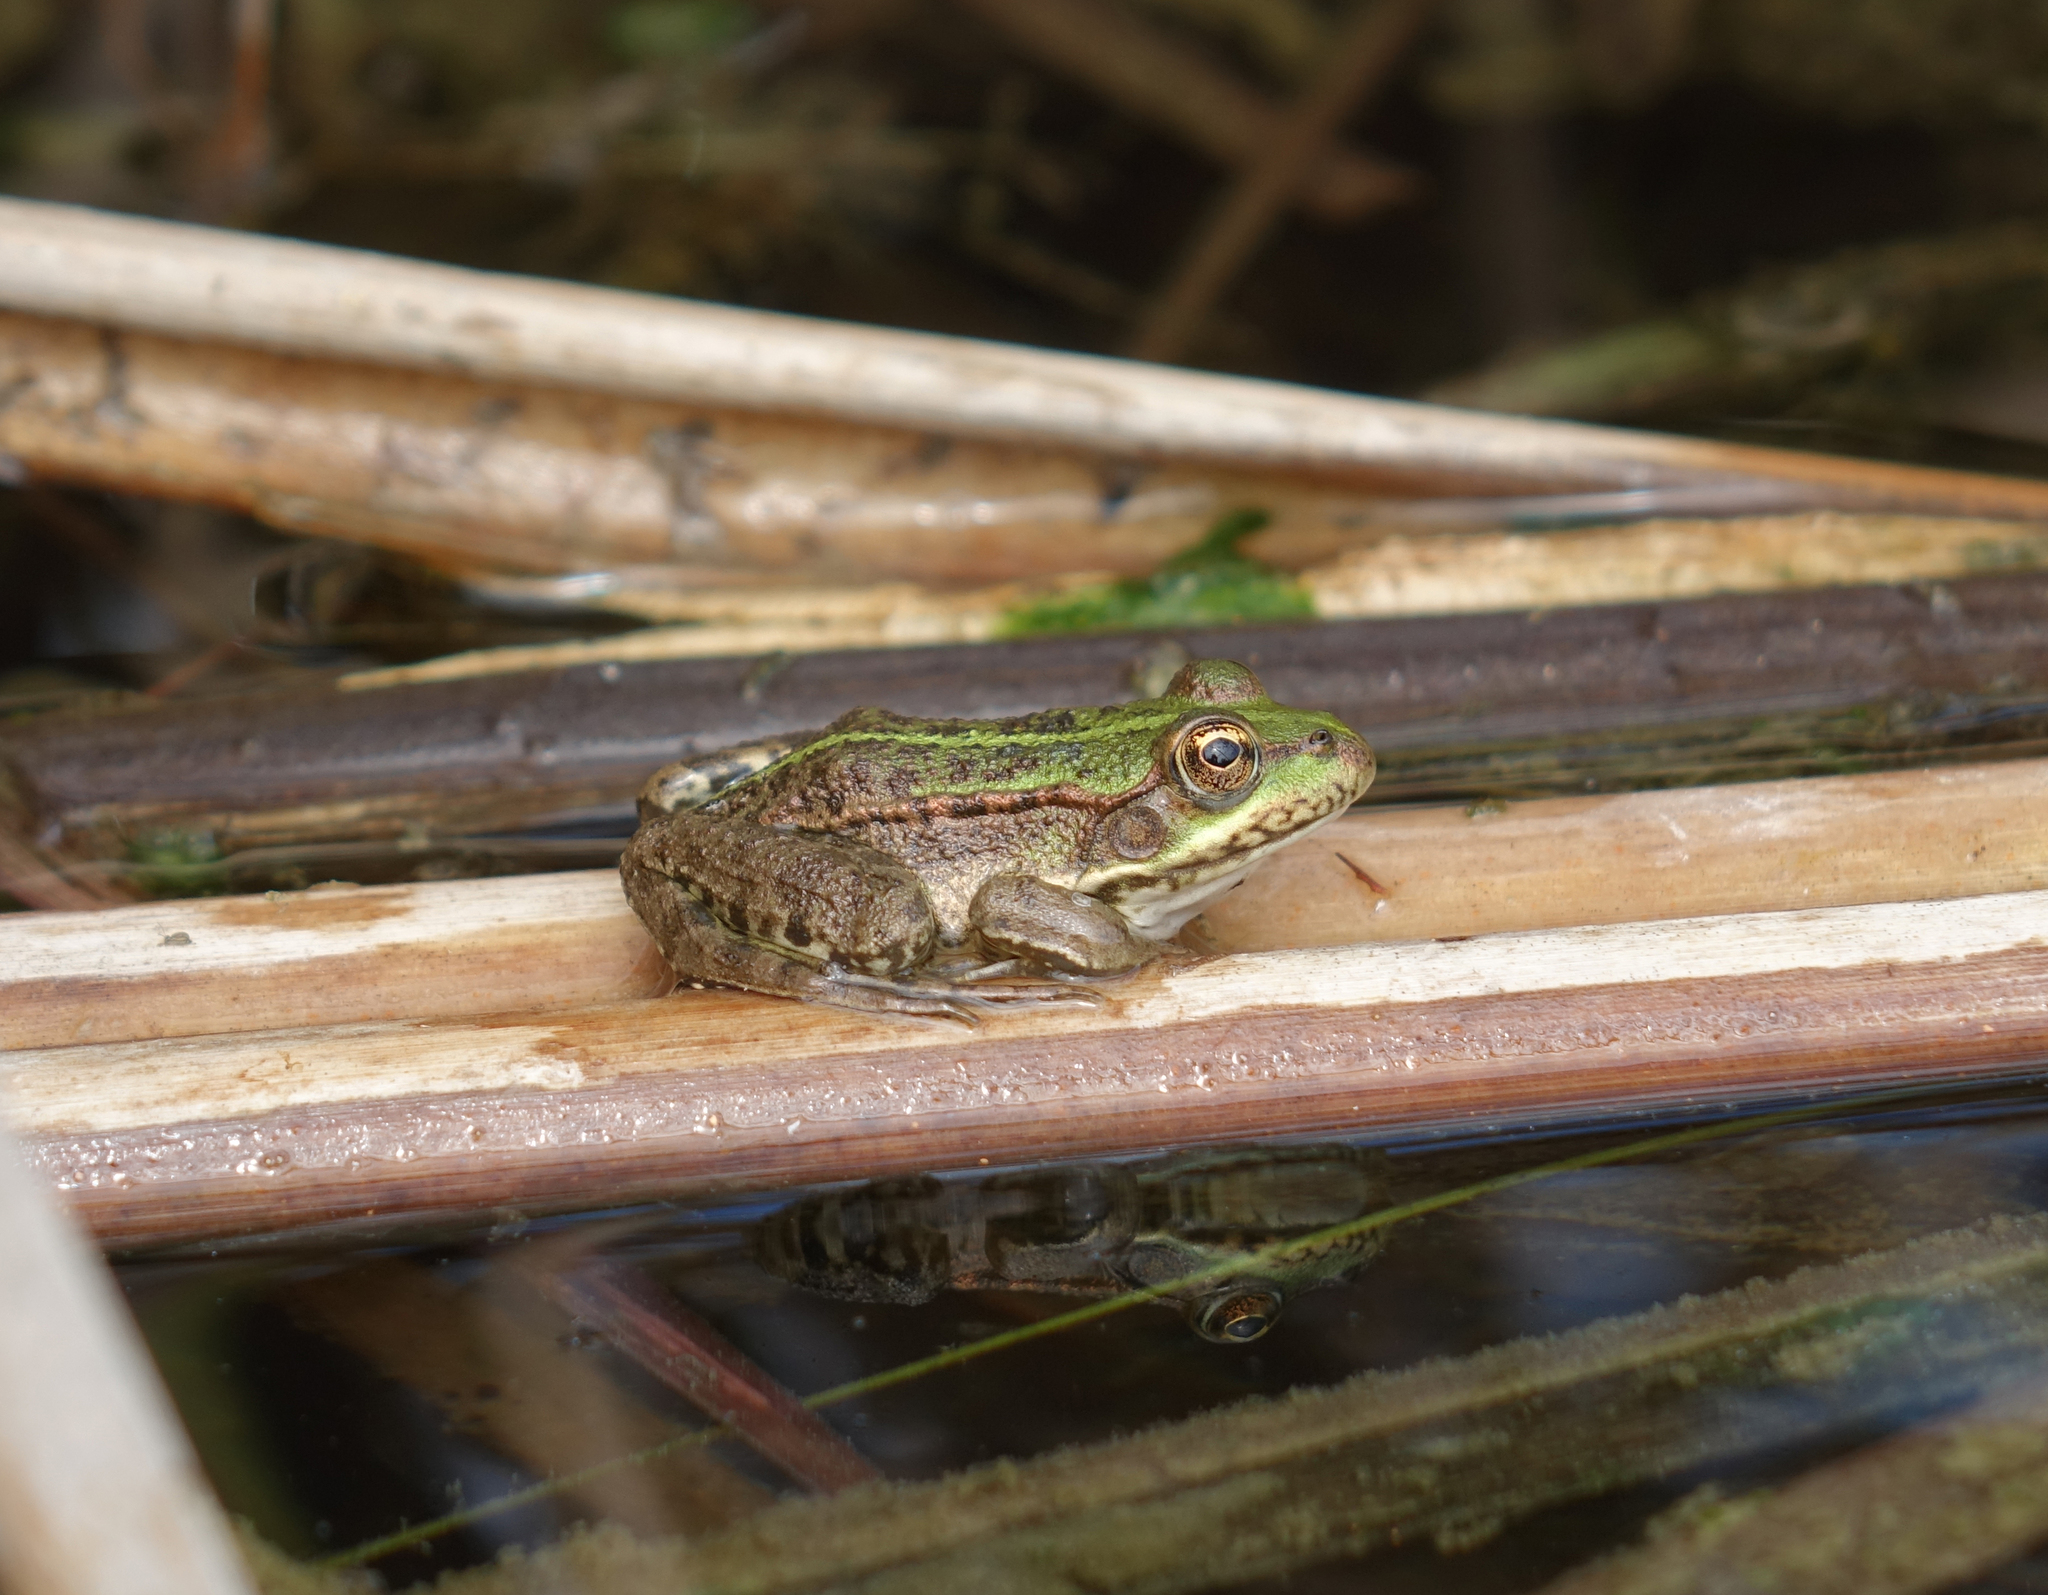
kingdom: Animalia
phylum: Chordata
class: Amphibia
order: Anura
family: Ranidae
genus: Pelophylax
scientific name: Pelophylax ridibundus
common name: Marsh frog
